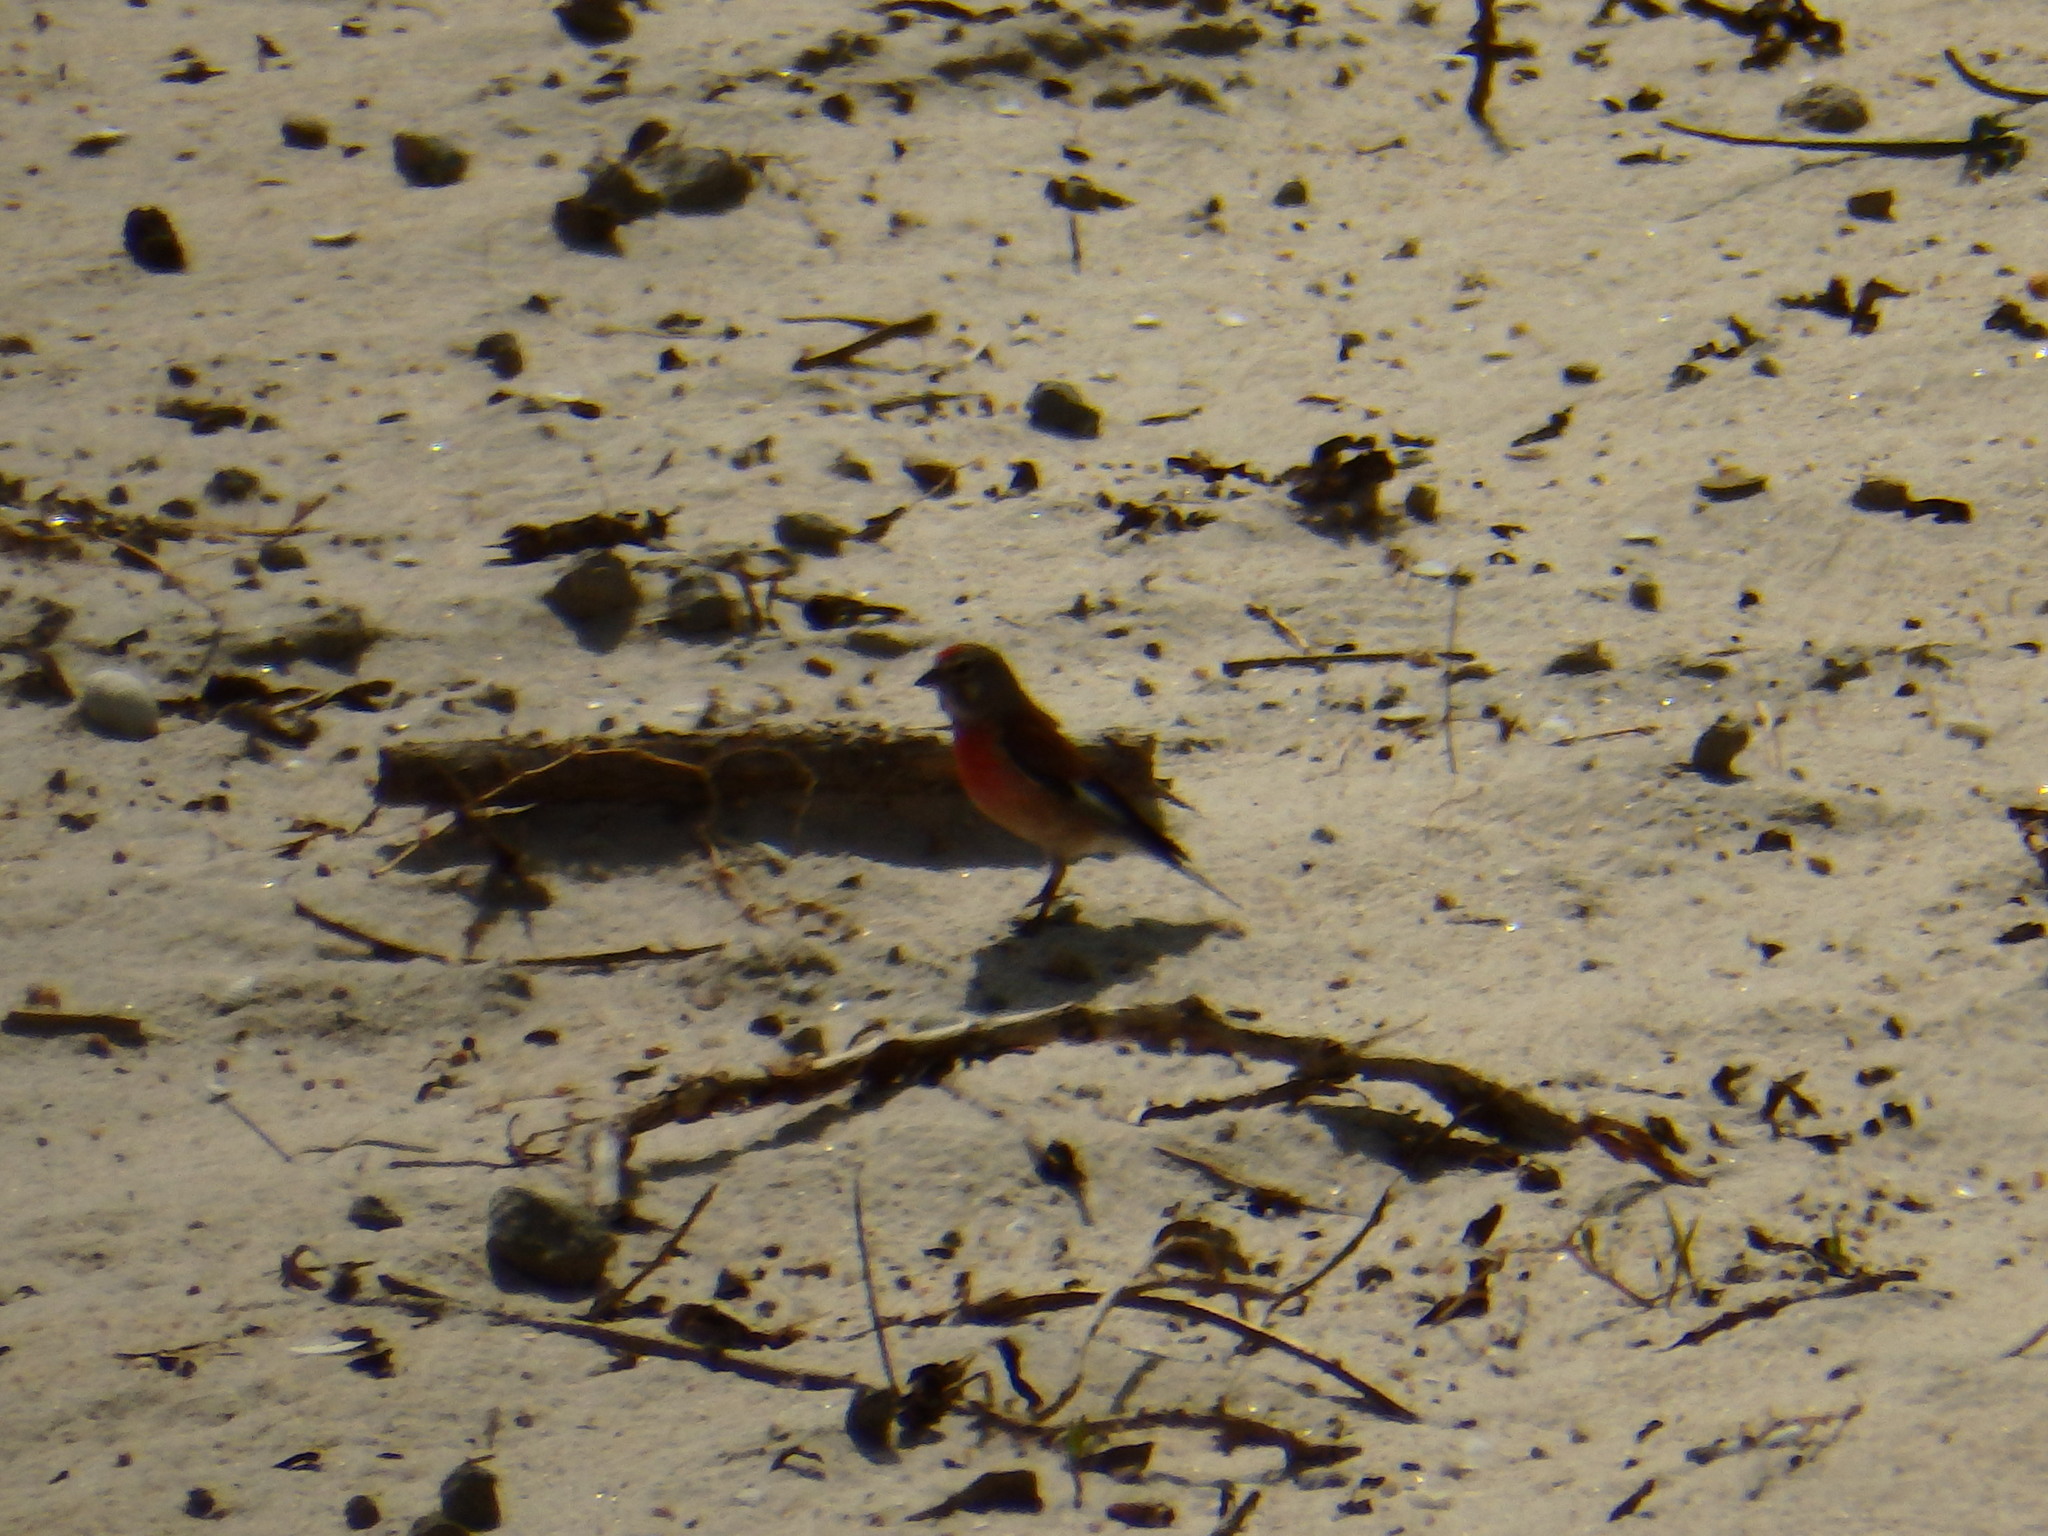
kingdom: Animalia
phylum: Chordata
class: Aves
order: Passeriformes
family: Fringillidae
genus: Linaria
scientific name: Linaria cannabina
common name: Common linnet
